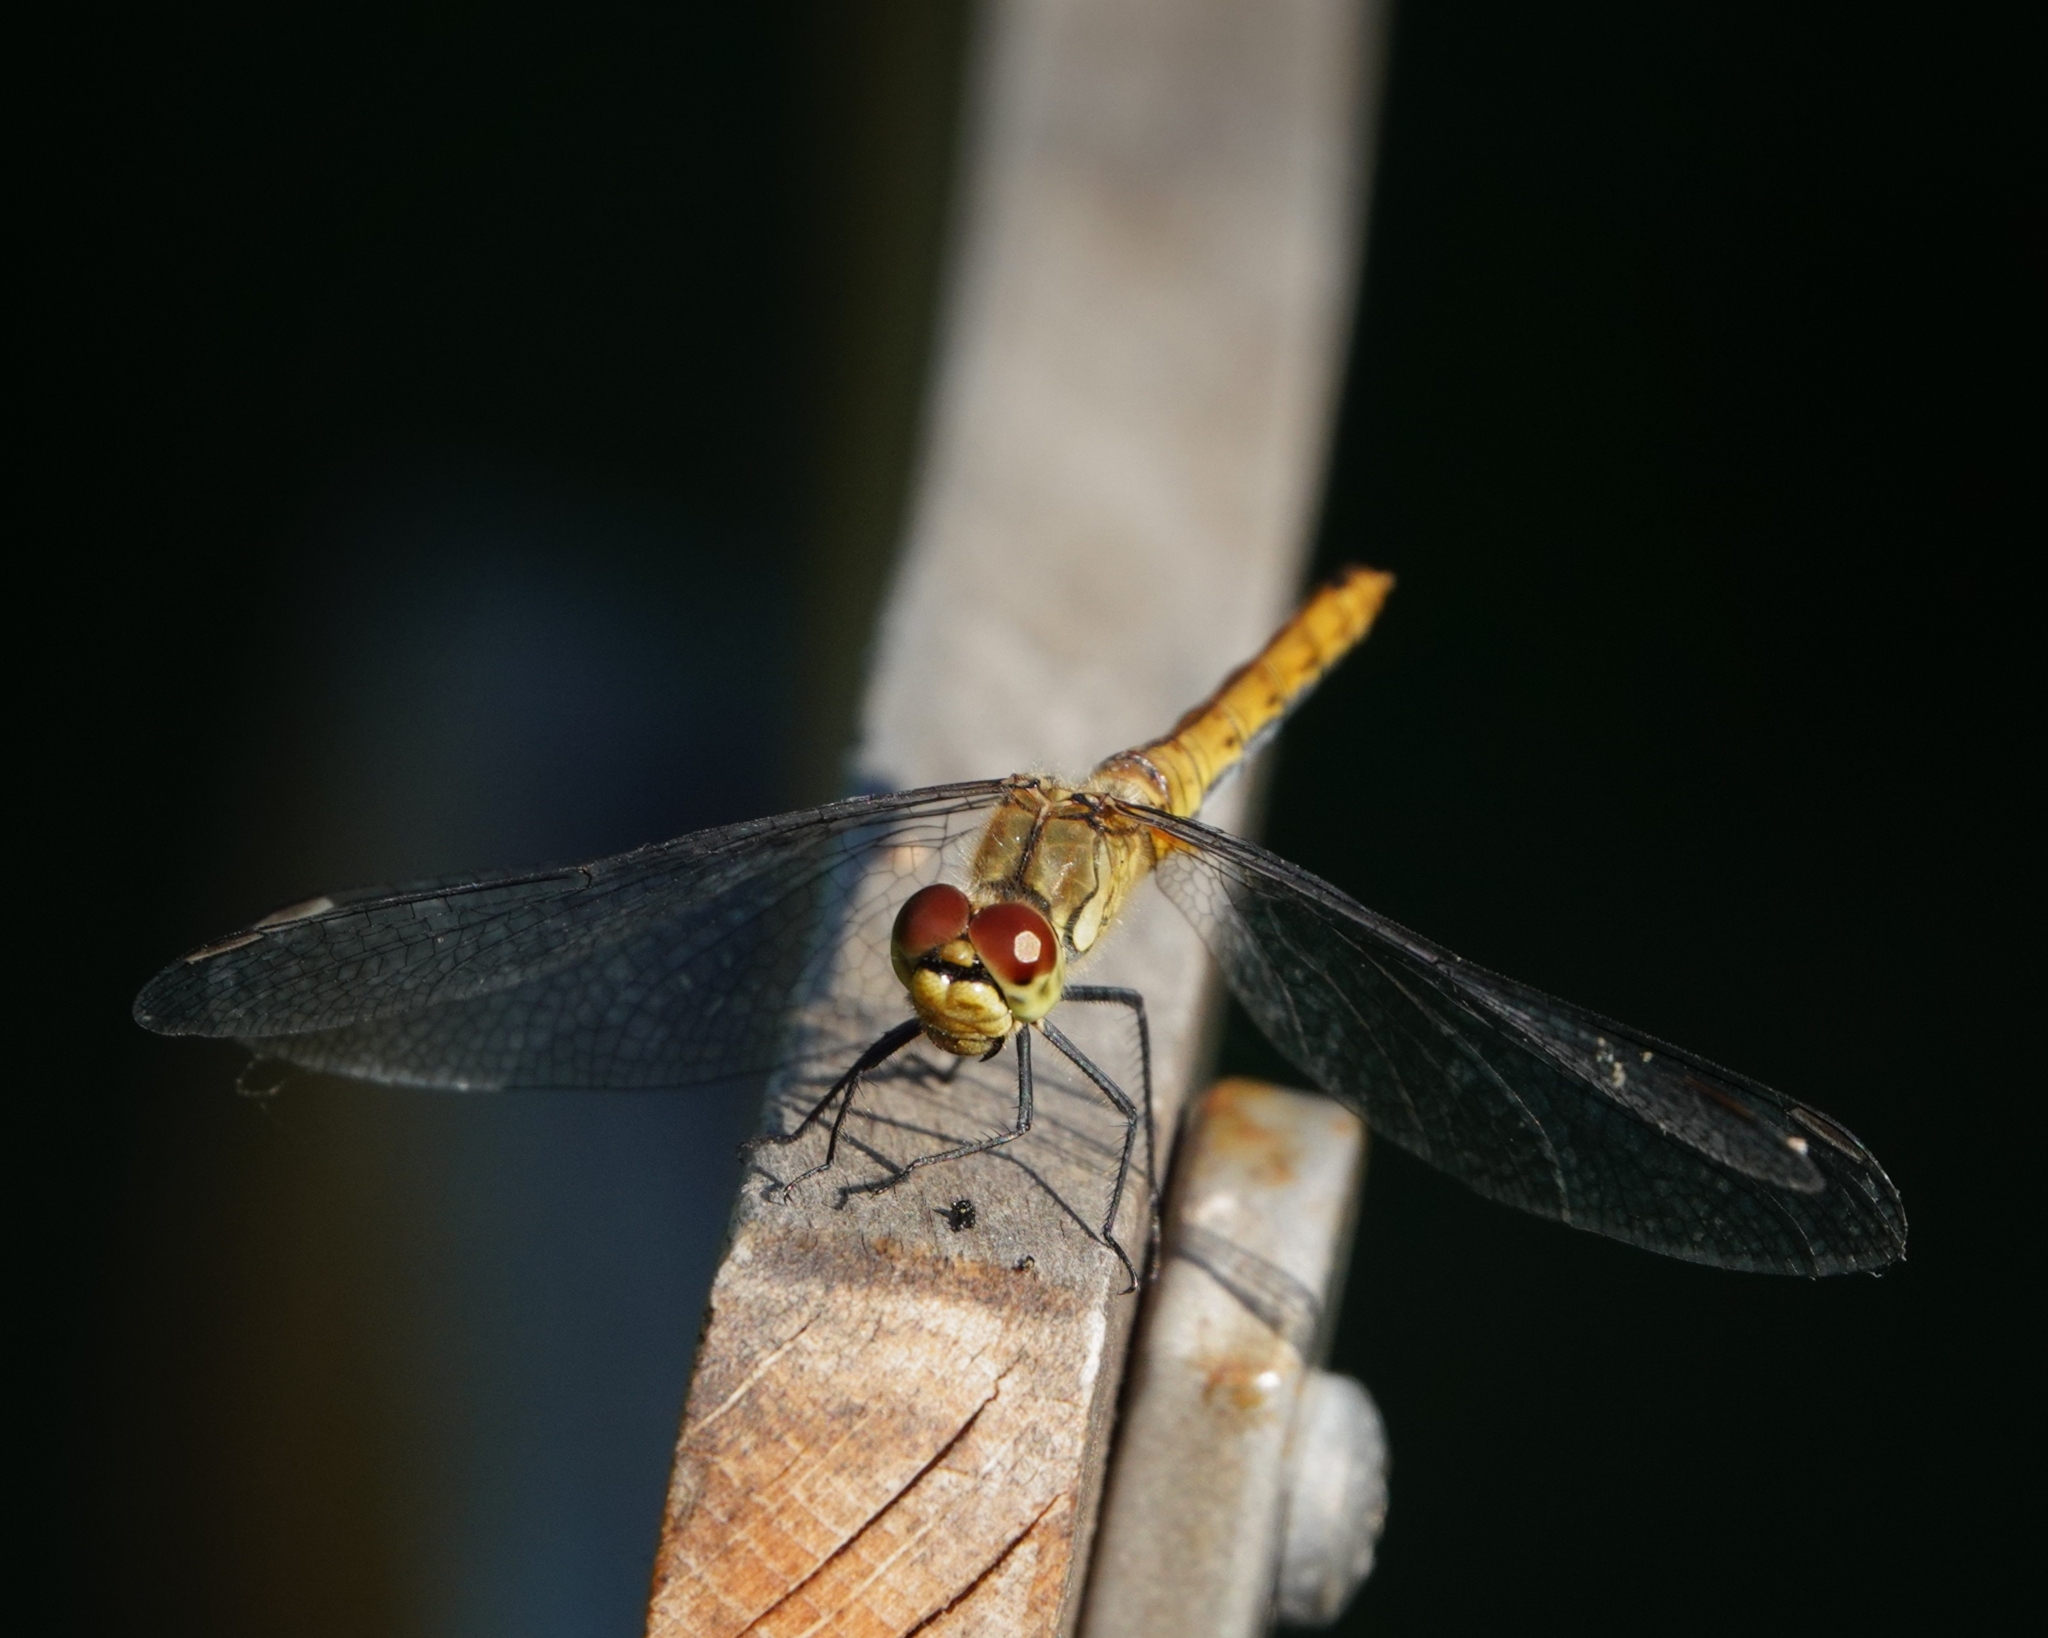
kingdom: Animalia
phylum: Arthropoda
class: Insecta
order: Odonata
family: Libellulidae
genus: Sympetrum
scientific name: Sympetrum sanguineum
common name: Ruddy darter
